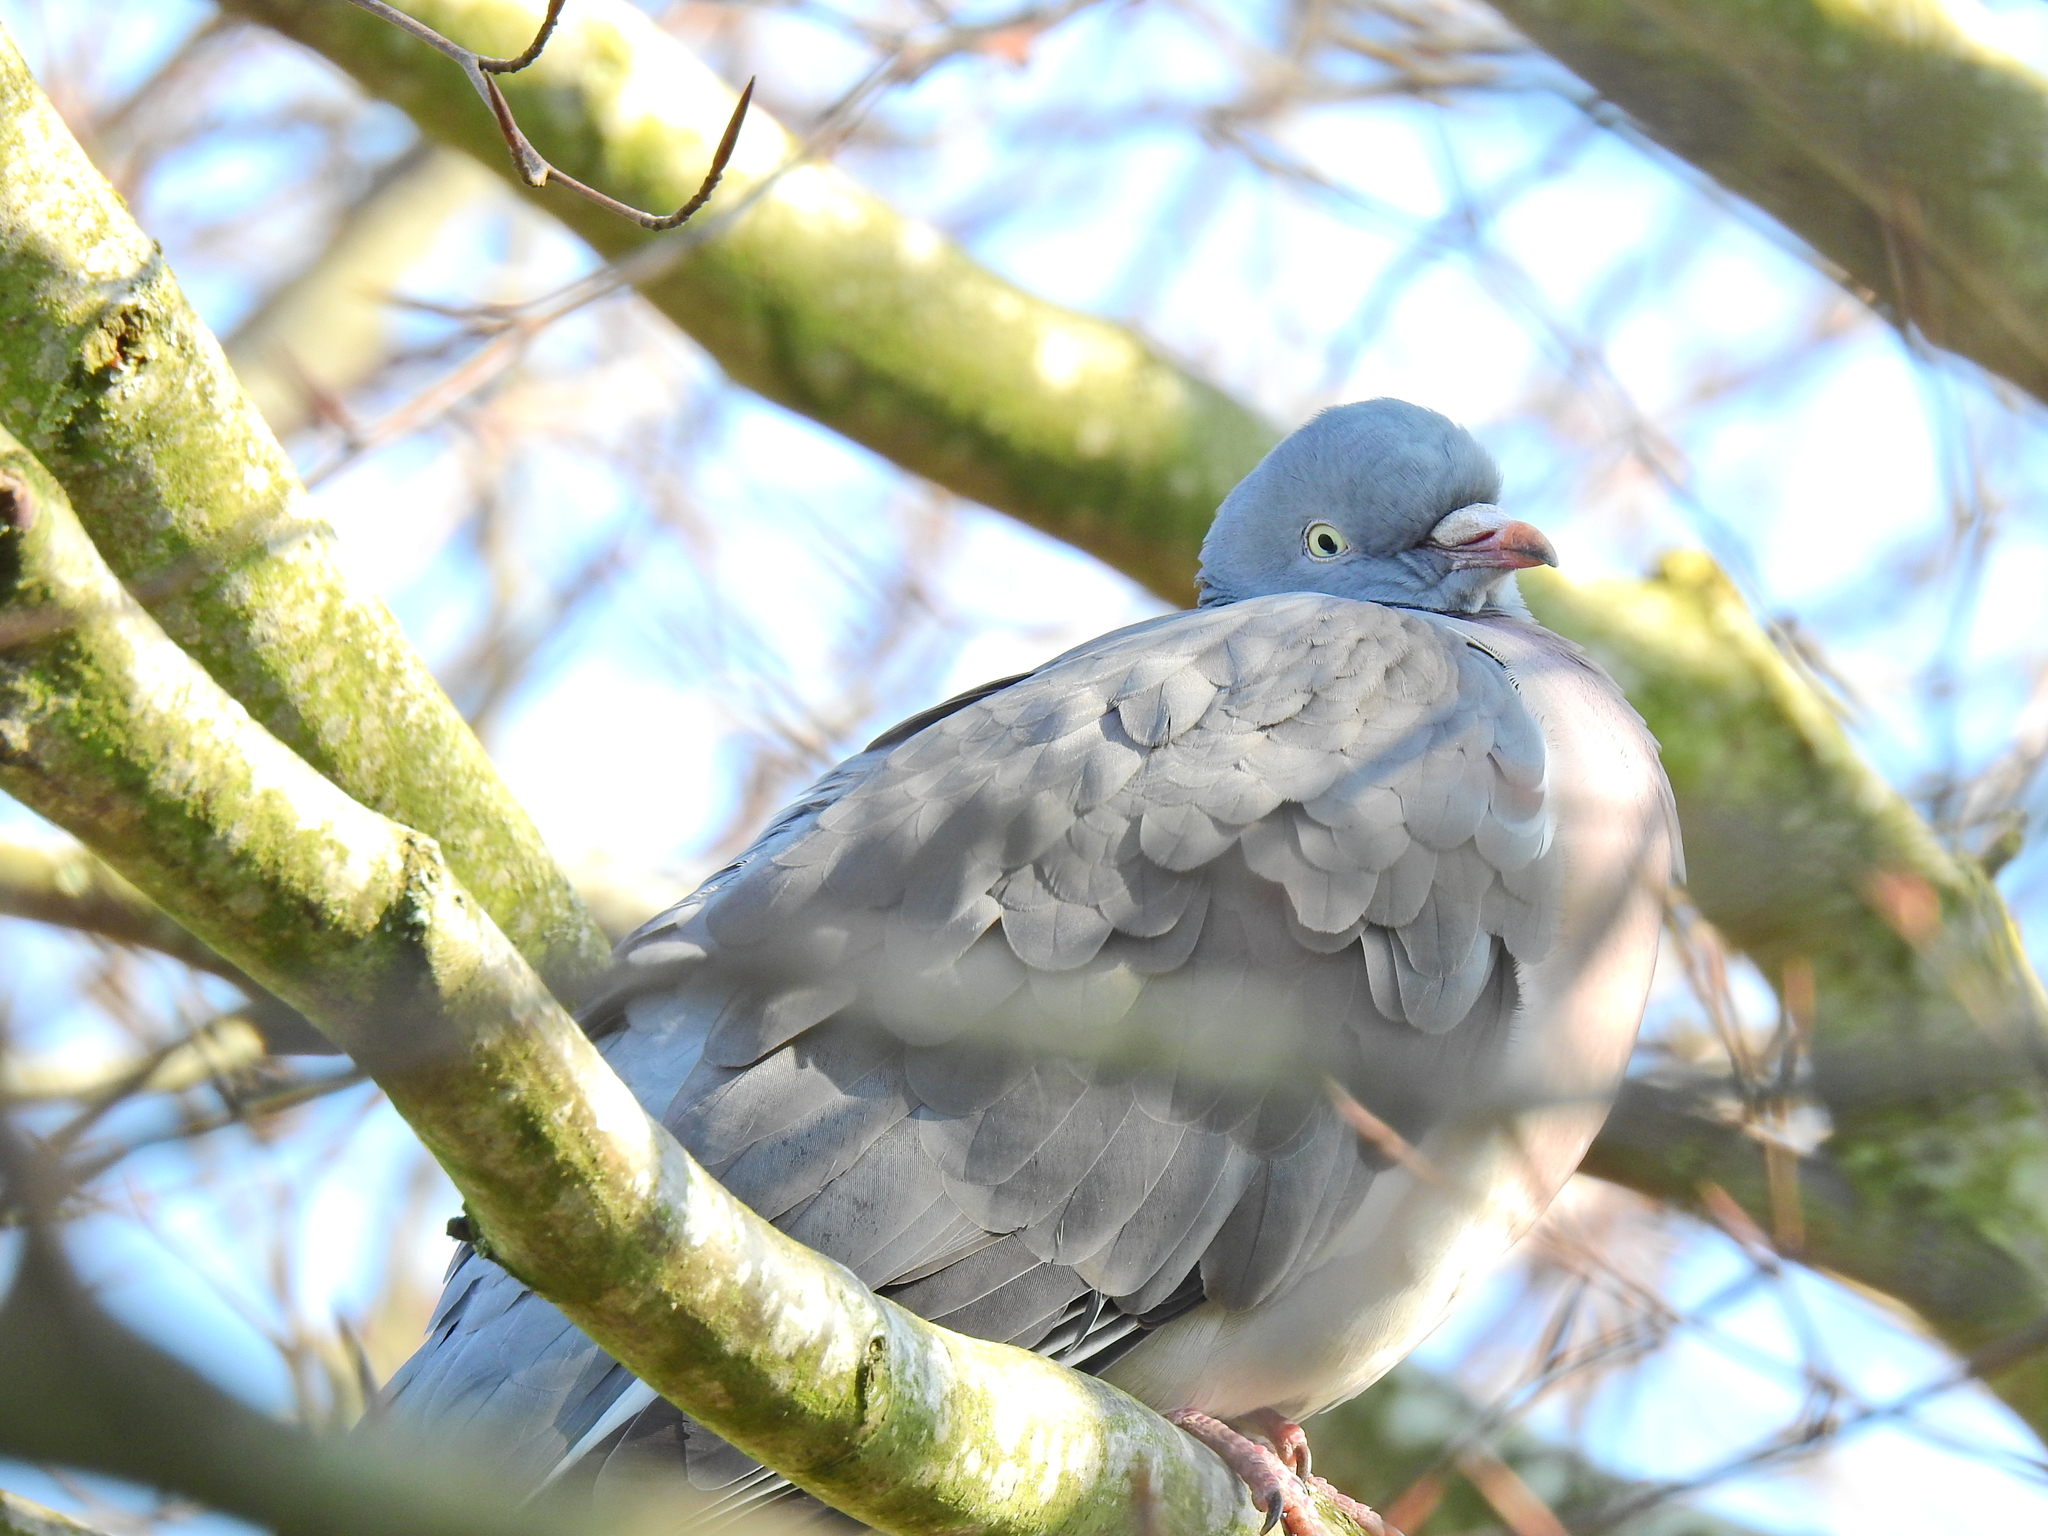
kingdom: Animalia
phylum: Chordata
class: Aves
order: Columbiformes
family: Columbidae
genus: Columba
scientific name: Columba palumbus
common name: Common wood pigeon
